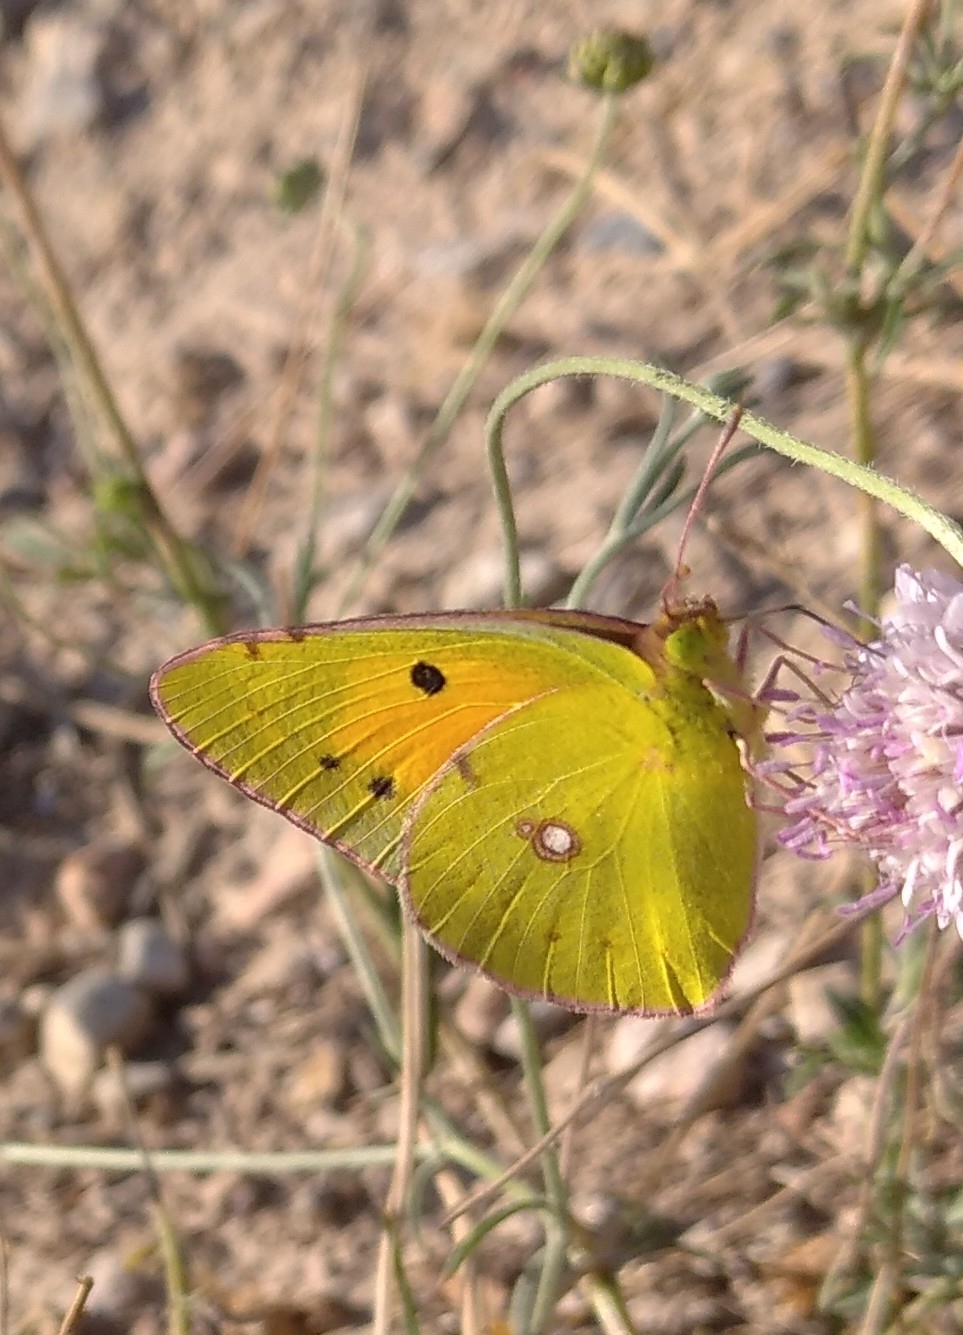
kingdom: Animalia
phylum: Arthropoda
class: Insecta
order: Lepidoptera
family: Pieridae
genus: Colias
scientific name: Colias croceus
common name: Clouded yellow
